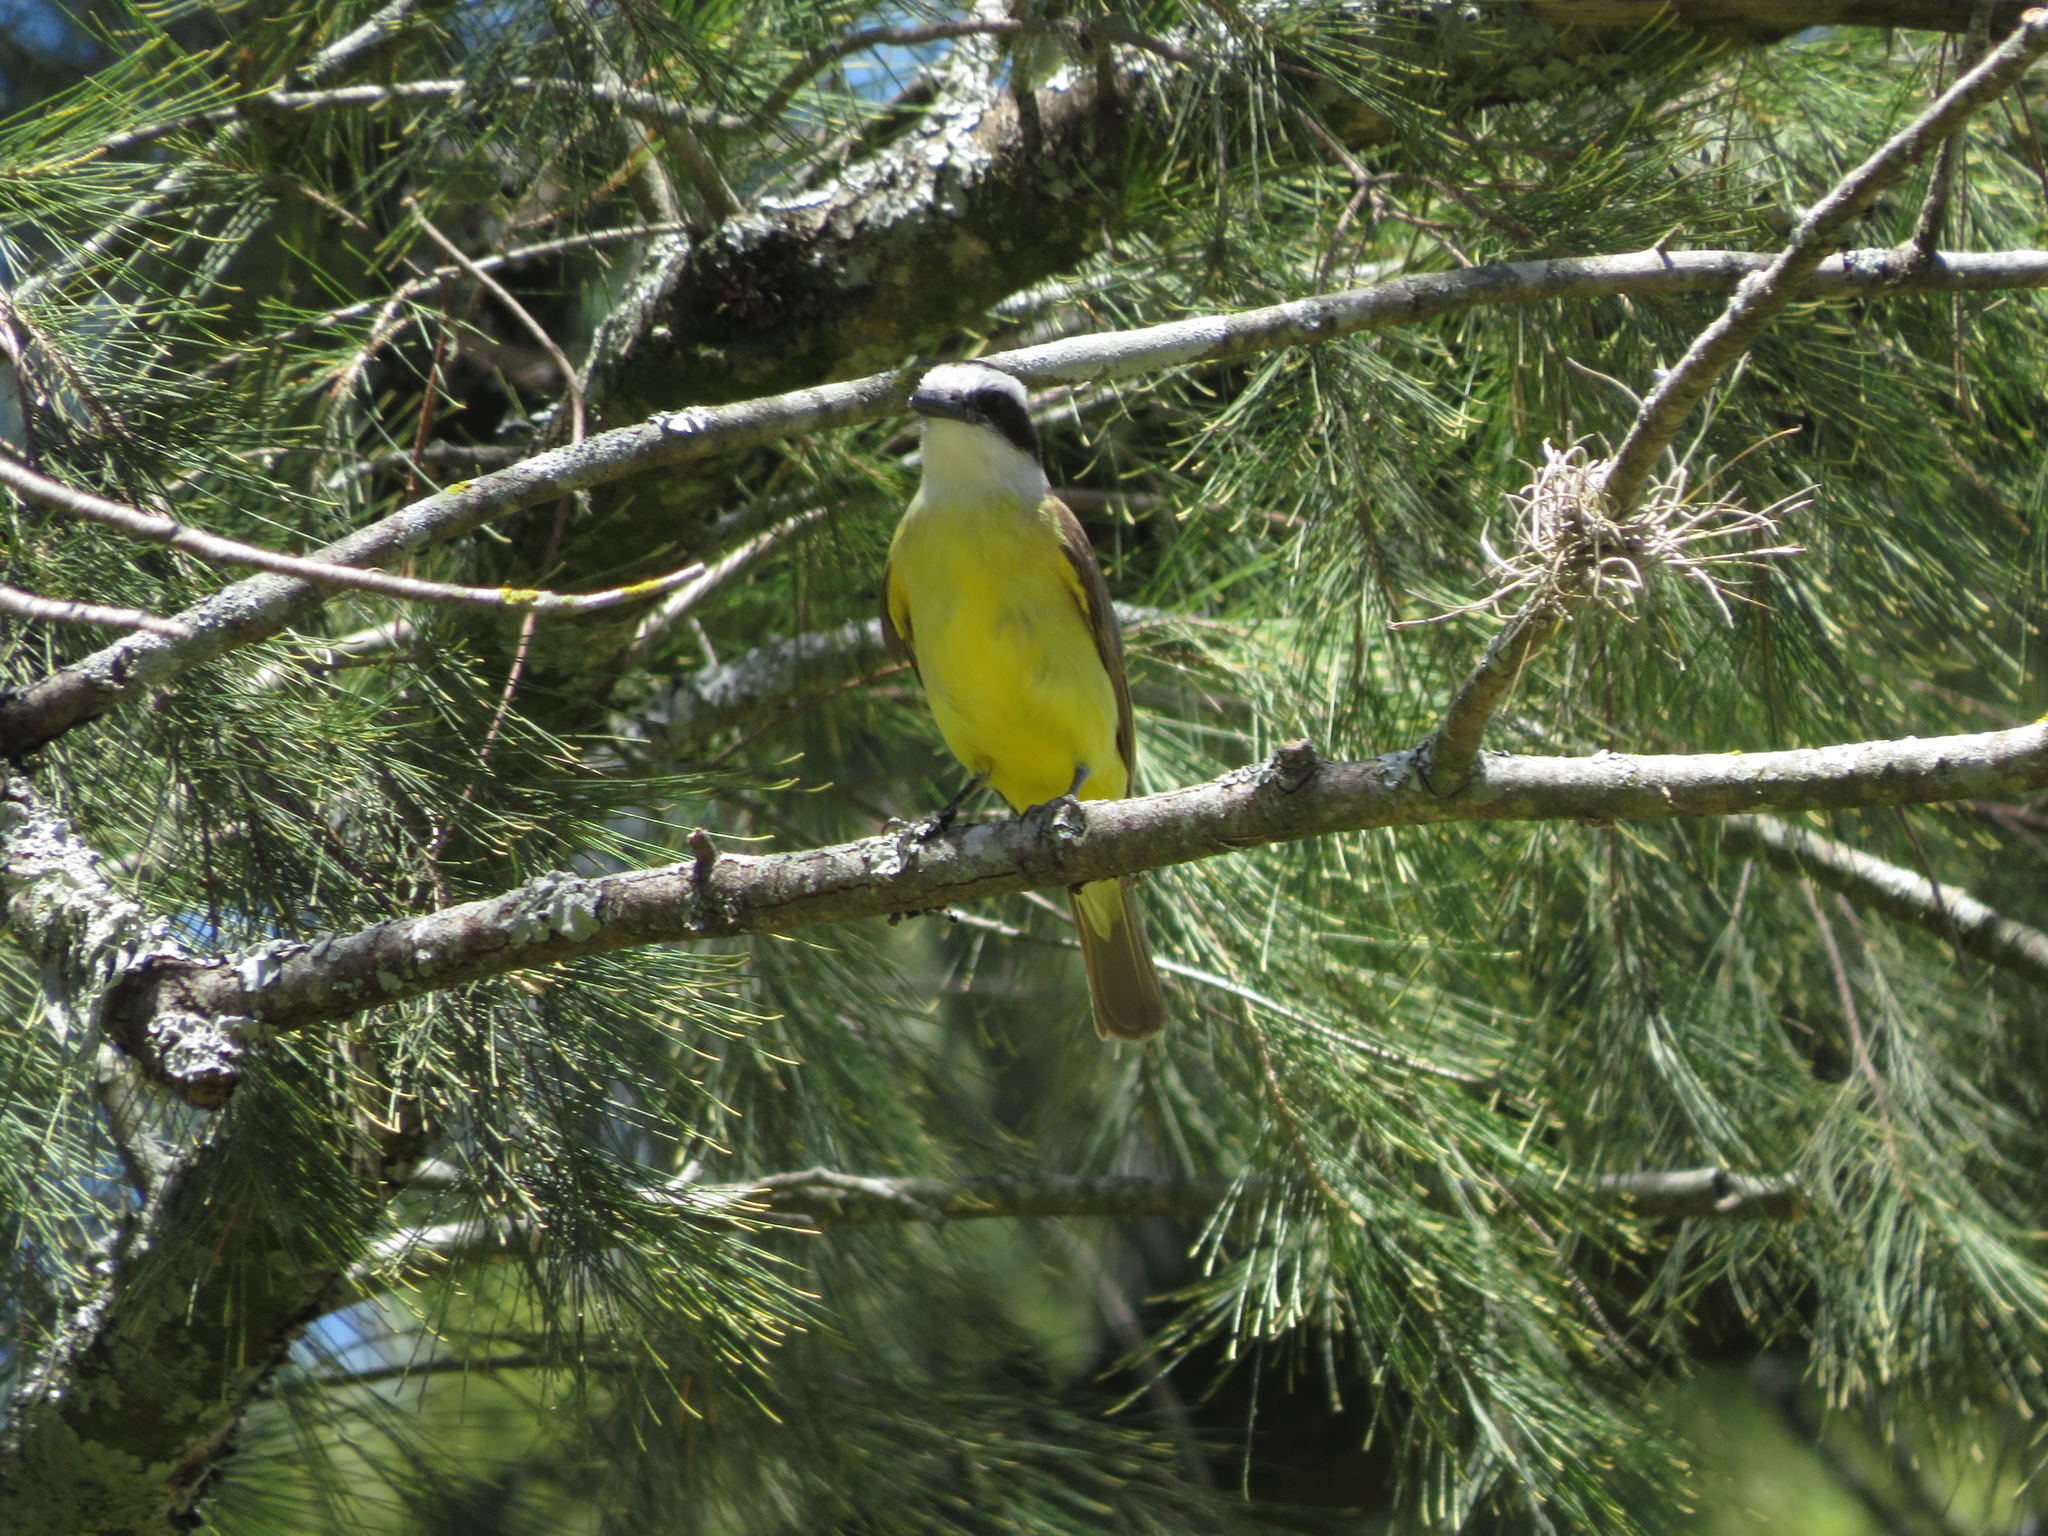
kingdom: Animalia
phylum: Chordata
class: Aves
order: Passeriformes
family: Tyrannidae
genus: Pitangus
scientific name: Pitangus sulphuratus
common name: Great kiskadee
